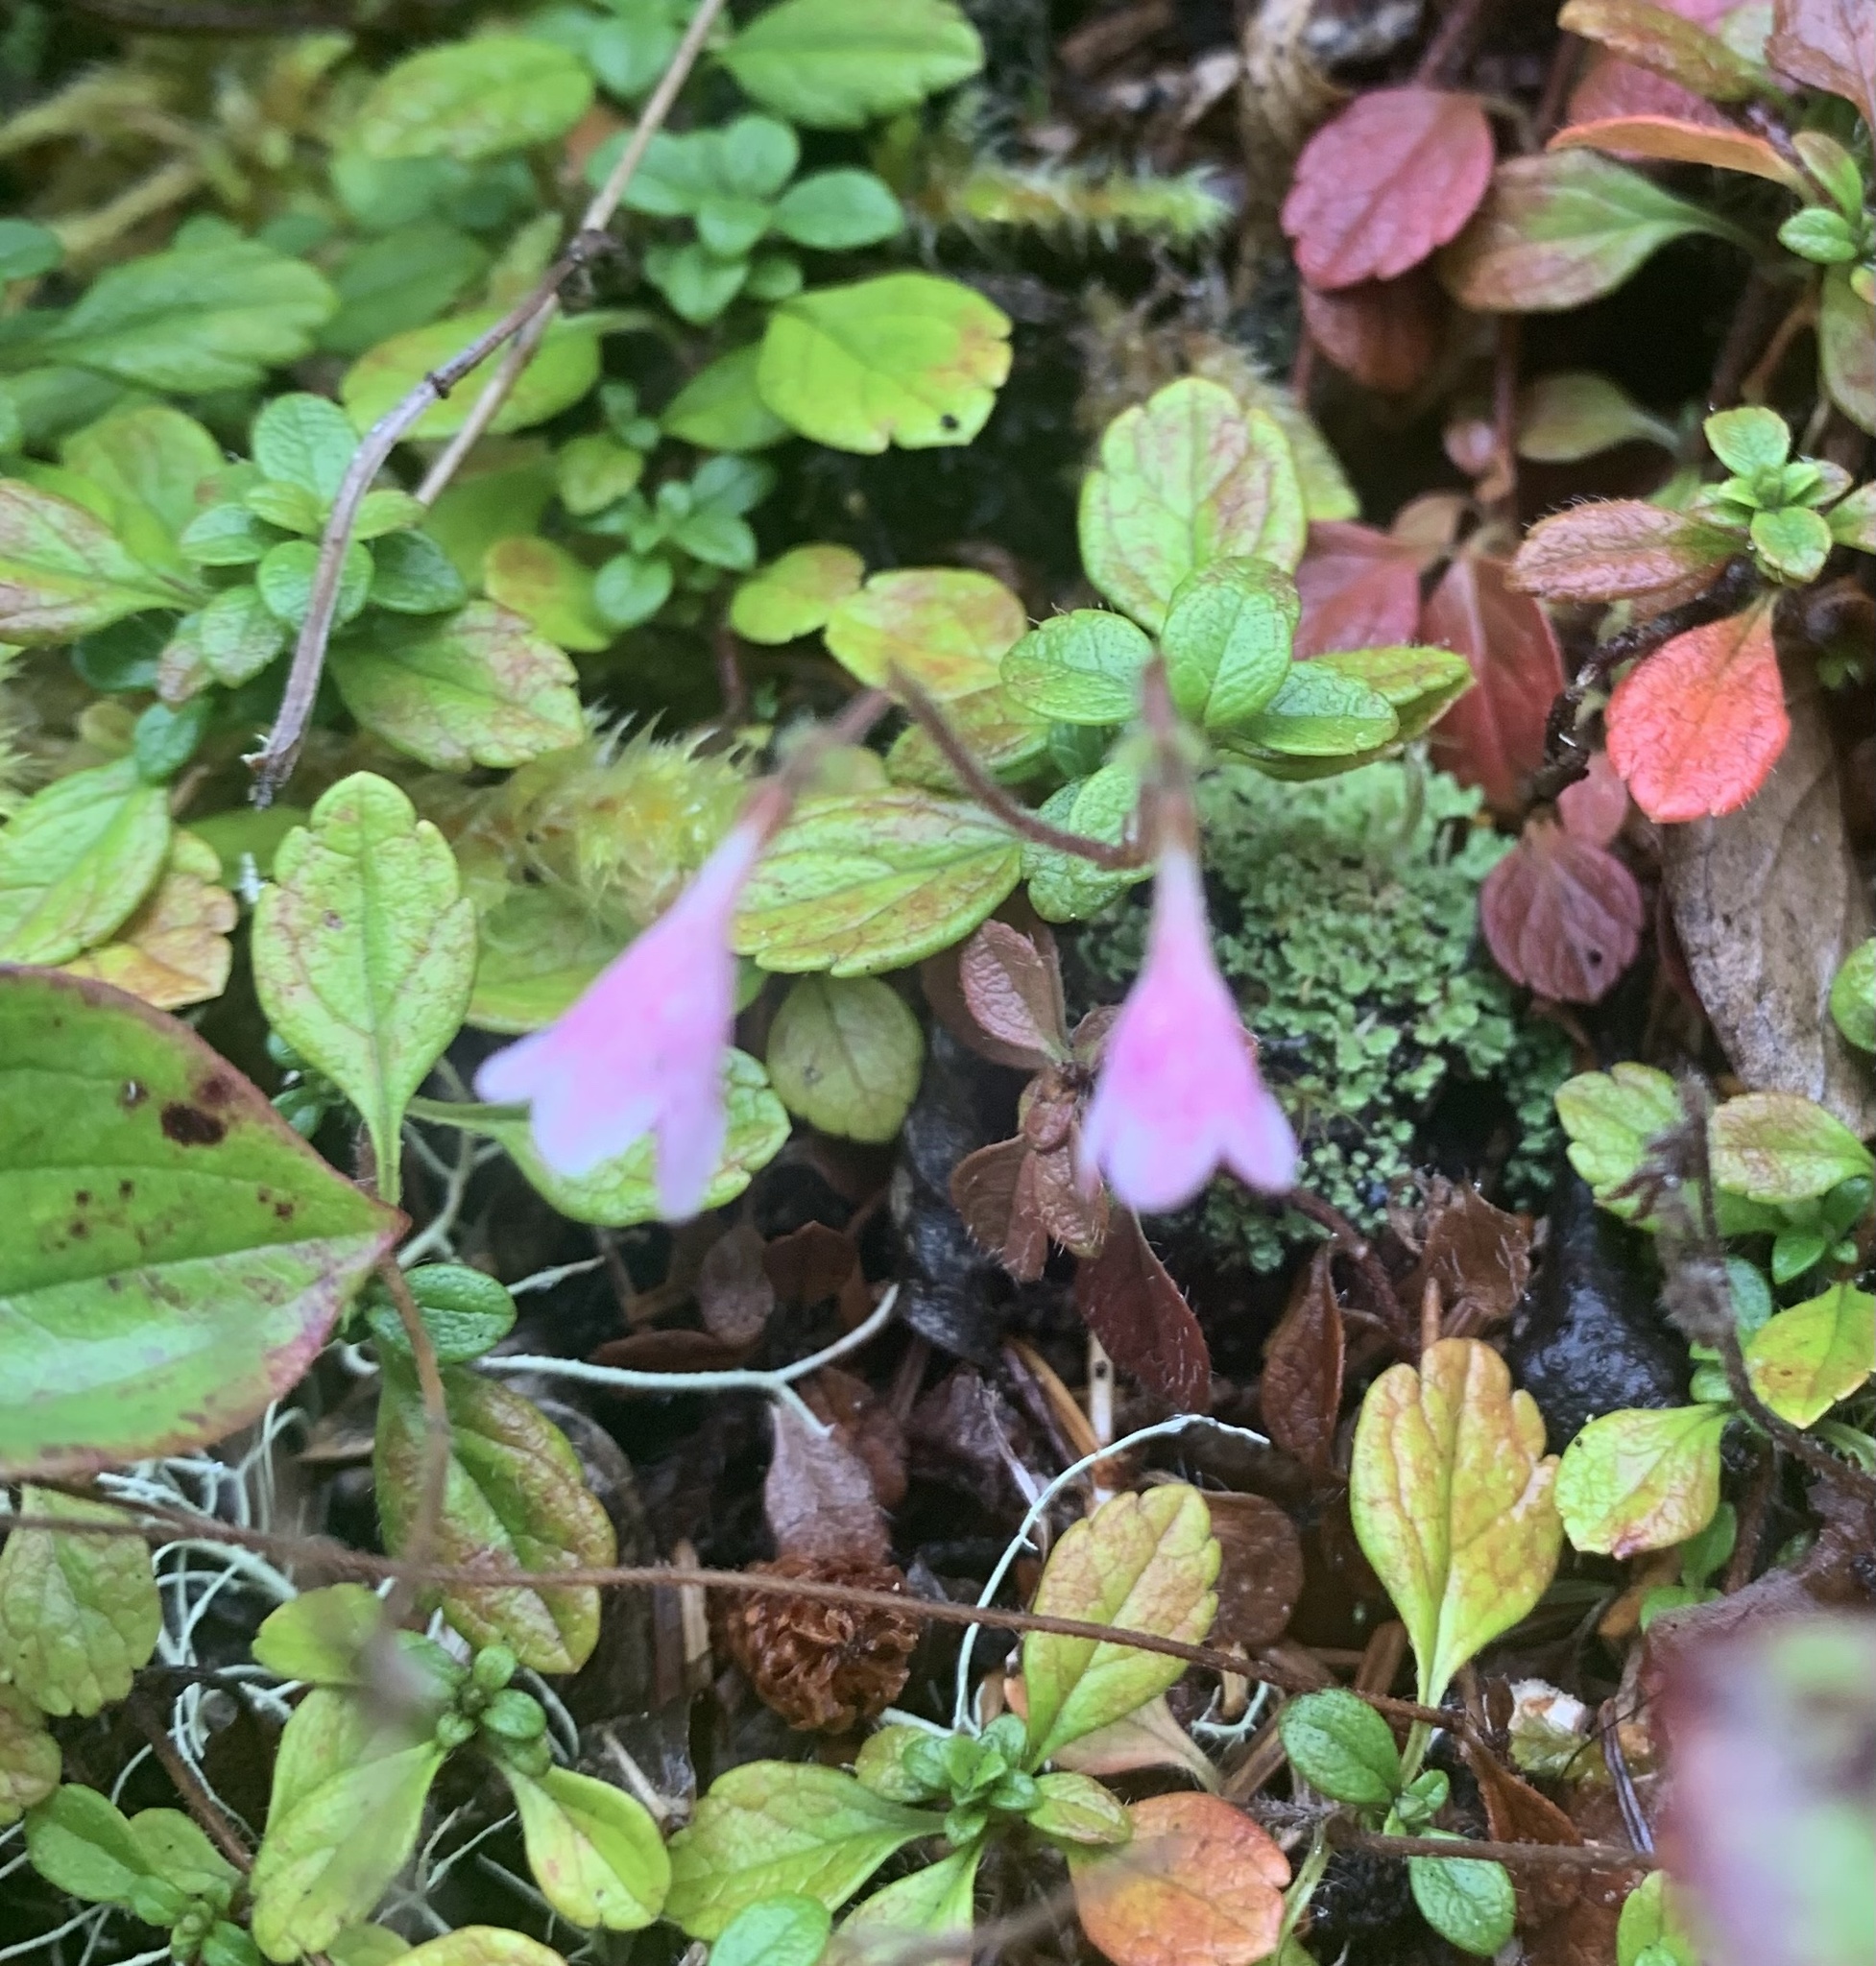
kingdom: Plantae
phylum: Tracheophyta
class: Magnoliopsida
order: Dipsacales
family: Caprifoliaceae
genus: Linnaea
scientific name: Linnaea borealis
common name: Twinflower
